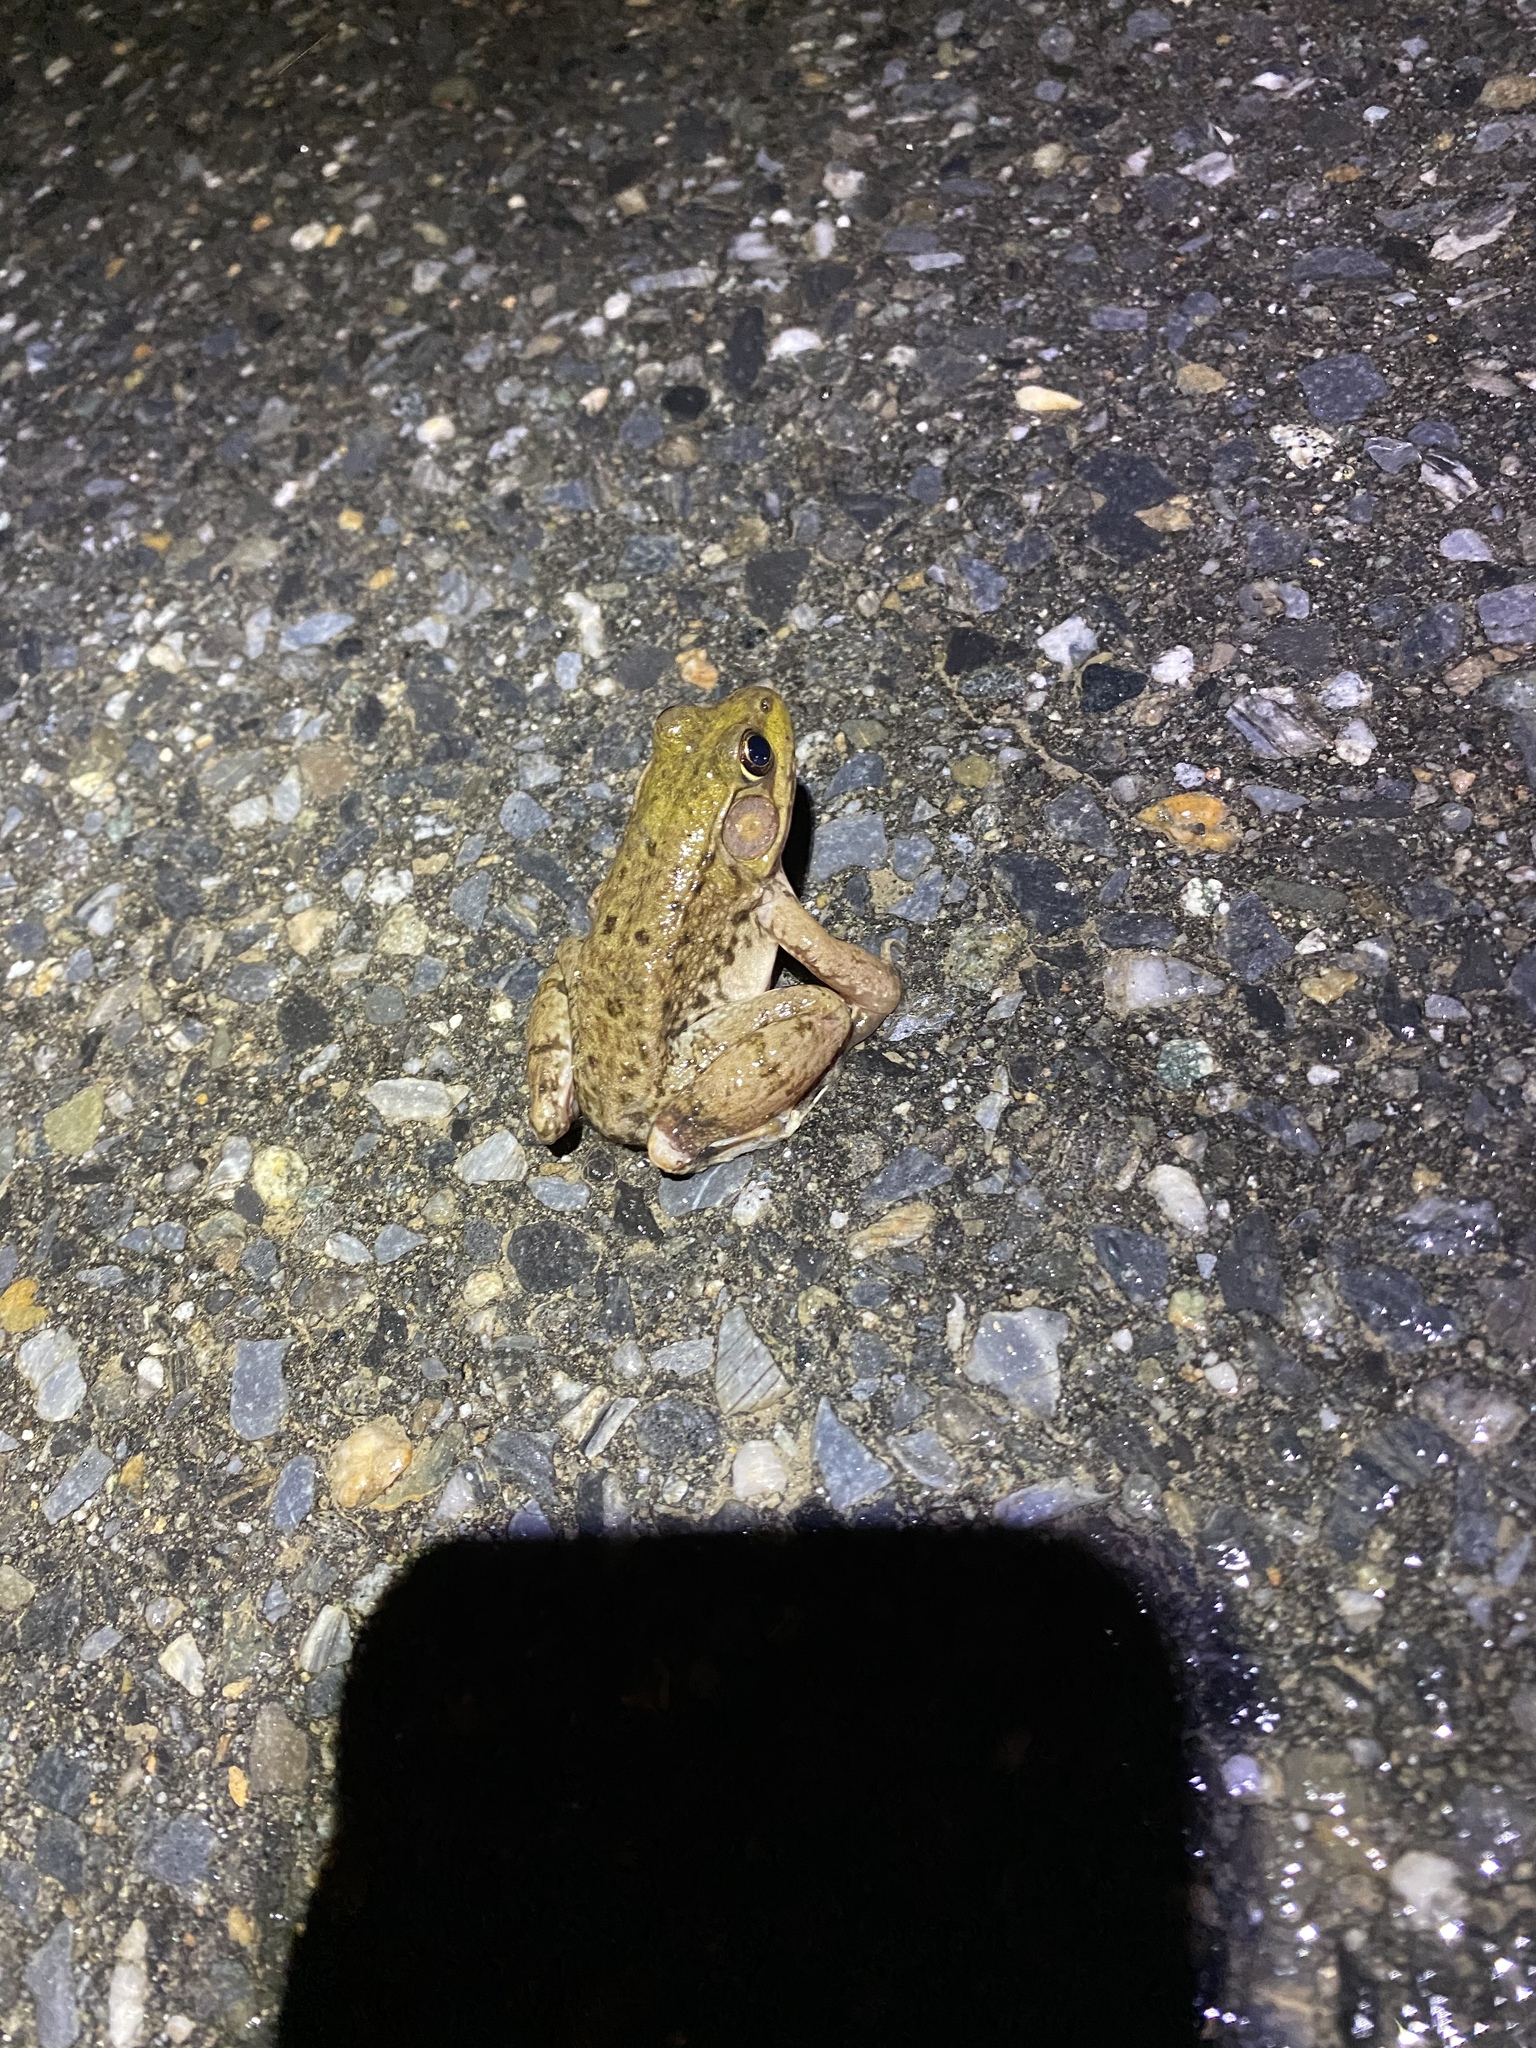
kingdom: Animalia
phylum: Chordata
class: Amphibia
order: Anura
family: Ranidae
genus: Lithobates
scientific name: Lithobates clamitans
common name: Green frog
